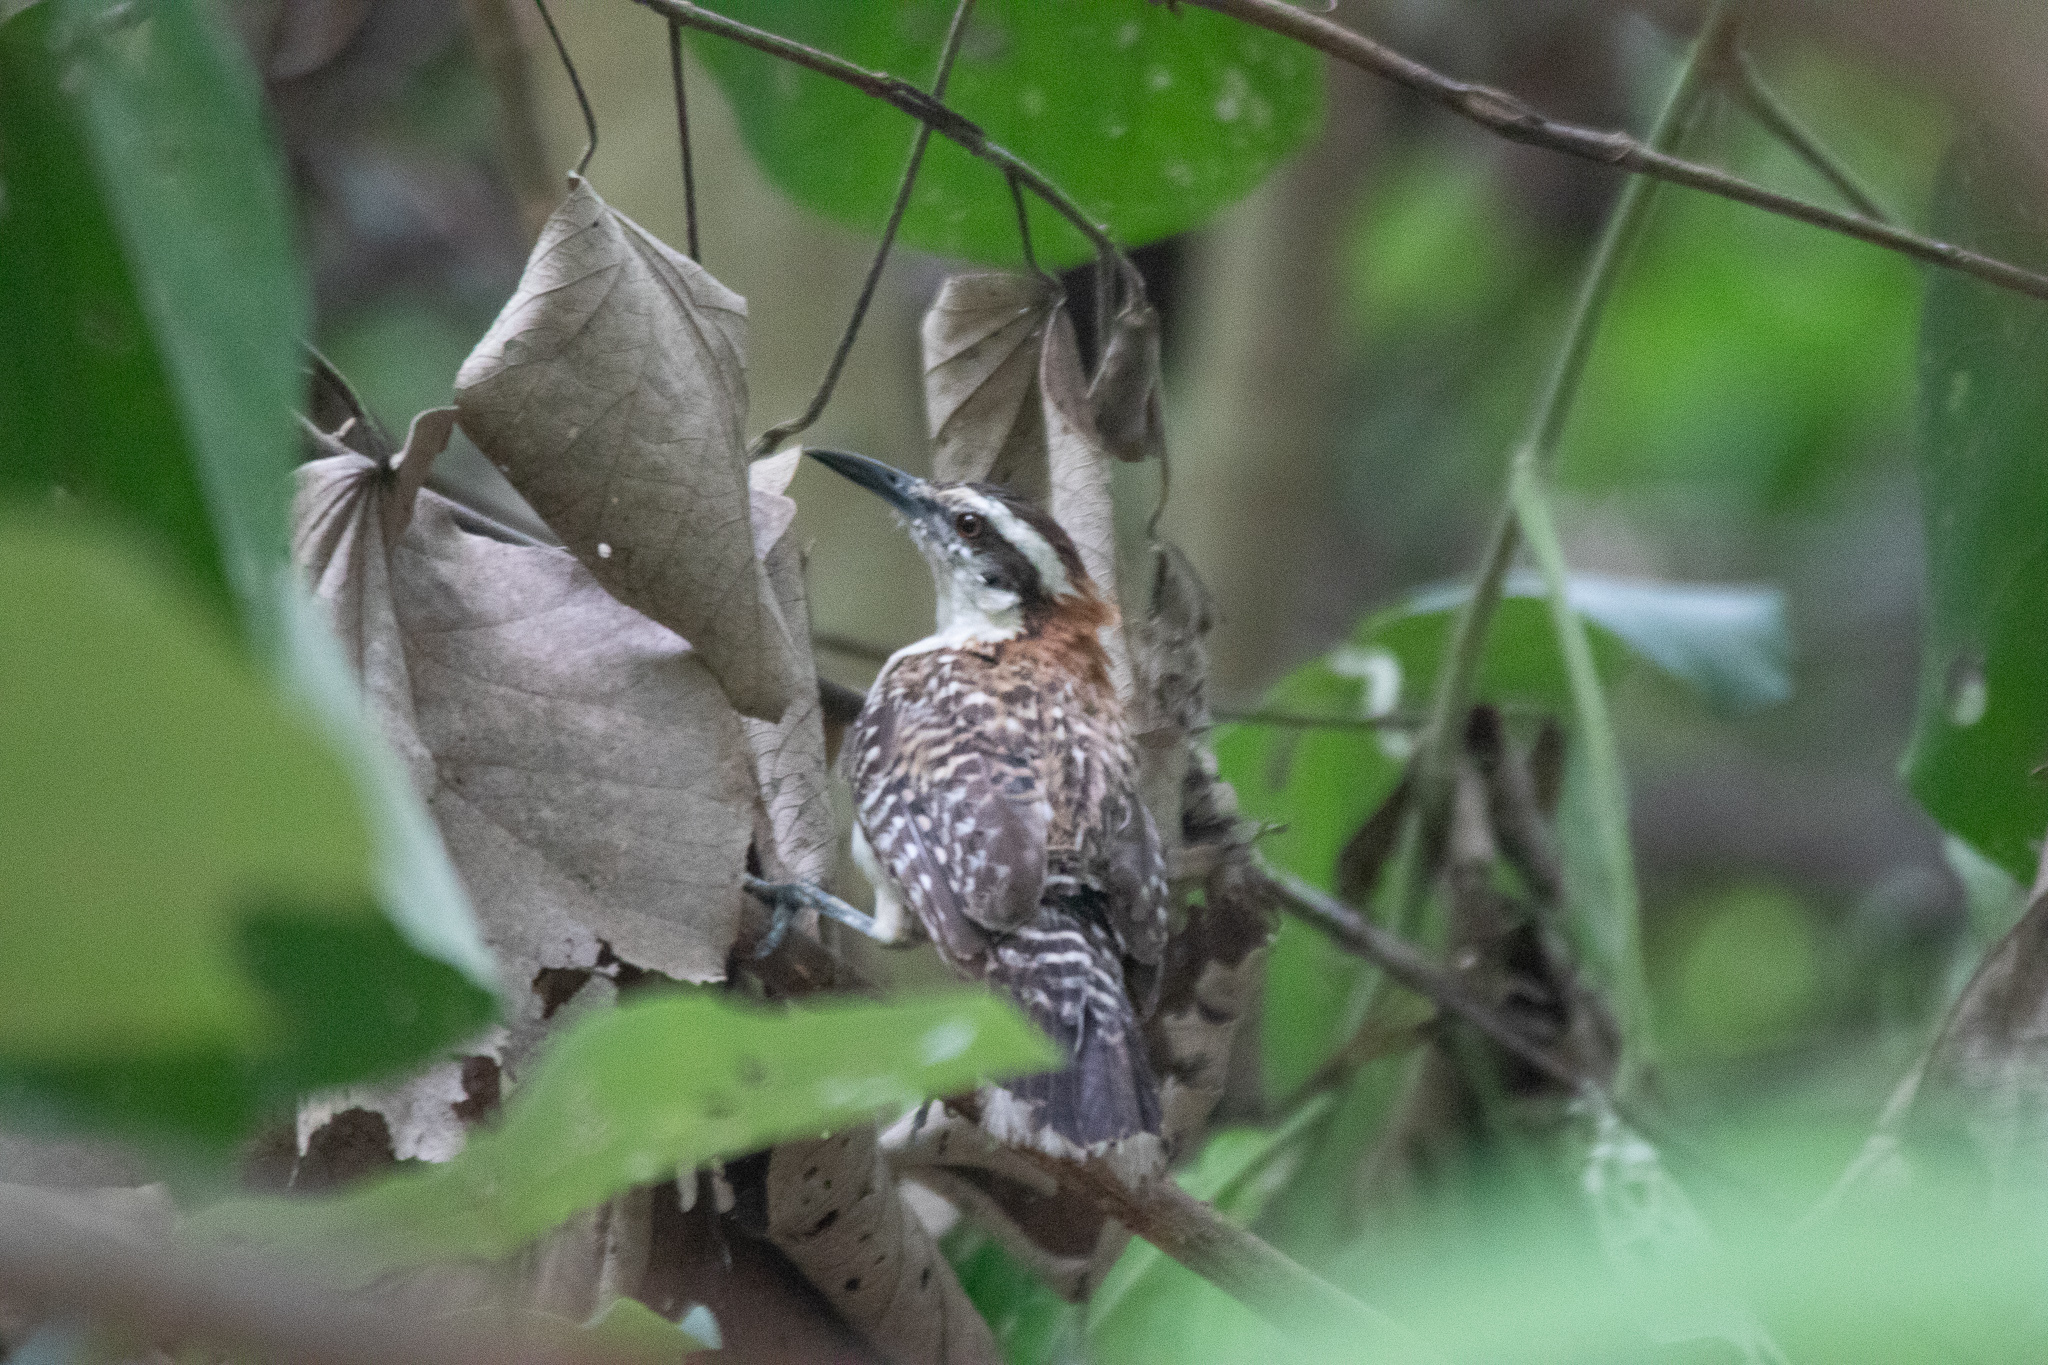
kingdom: Animalia
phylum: Chordata
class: Aves
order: Passeriformes
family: Troglodytidae
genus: Campylorhynchus
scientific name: Campylorhynchus rufinucha
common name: Rufous-naped wren
